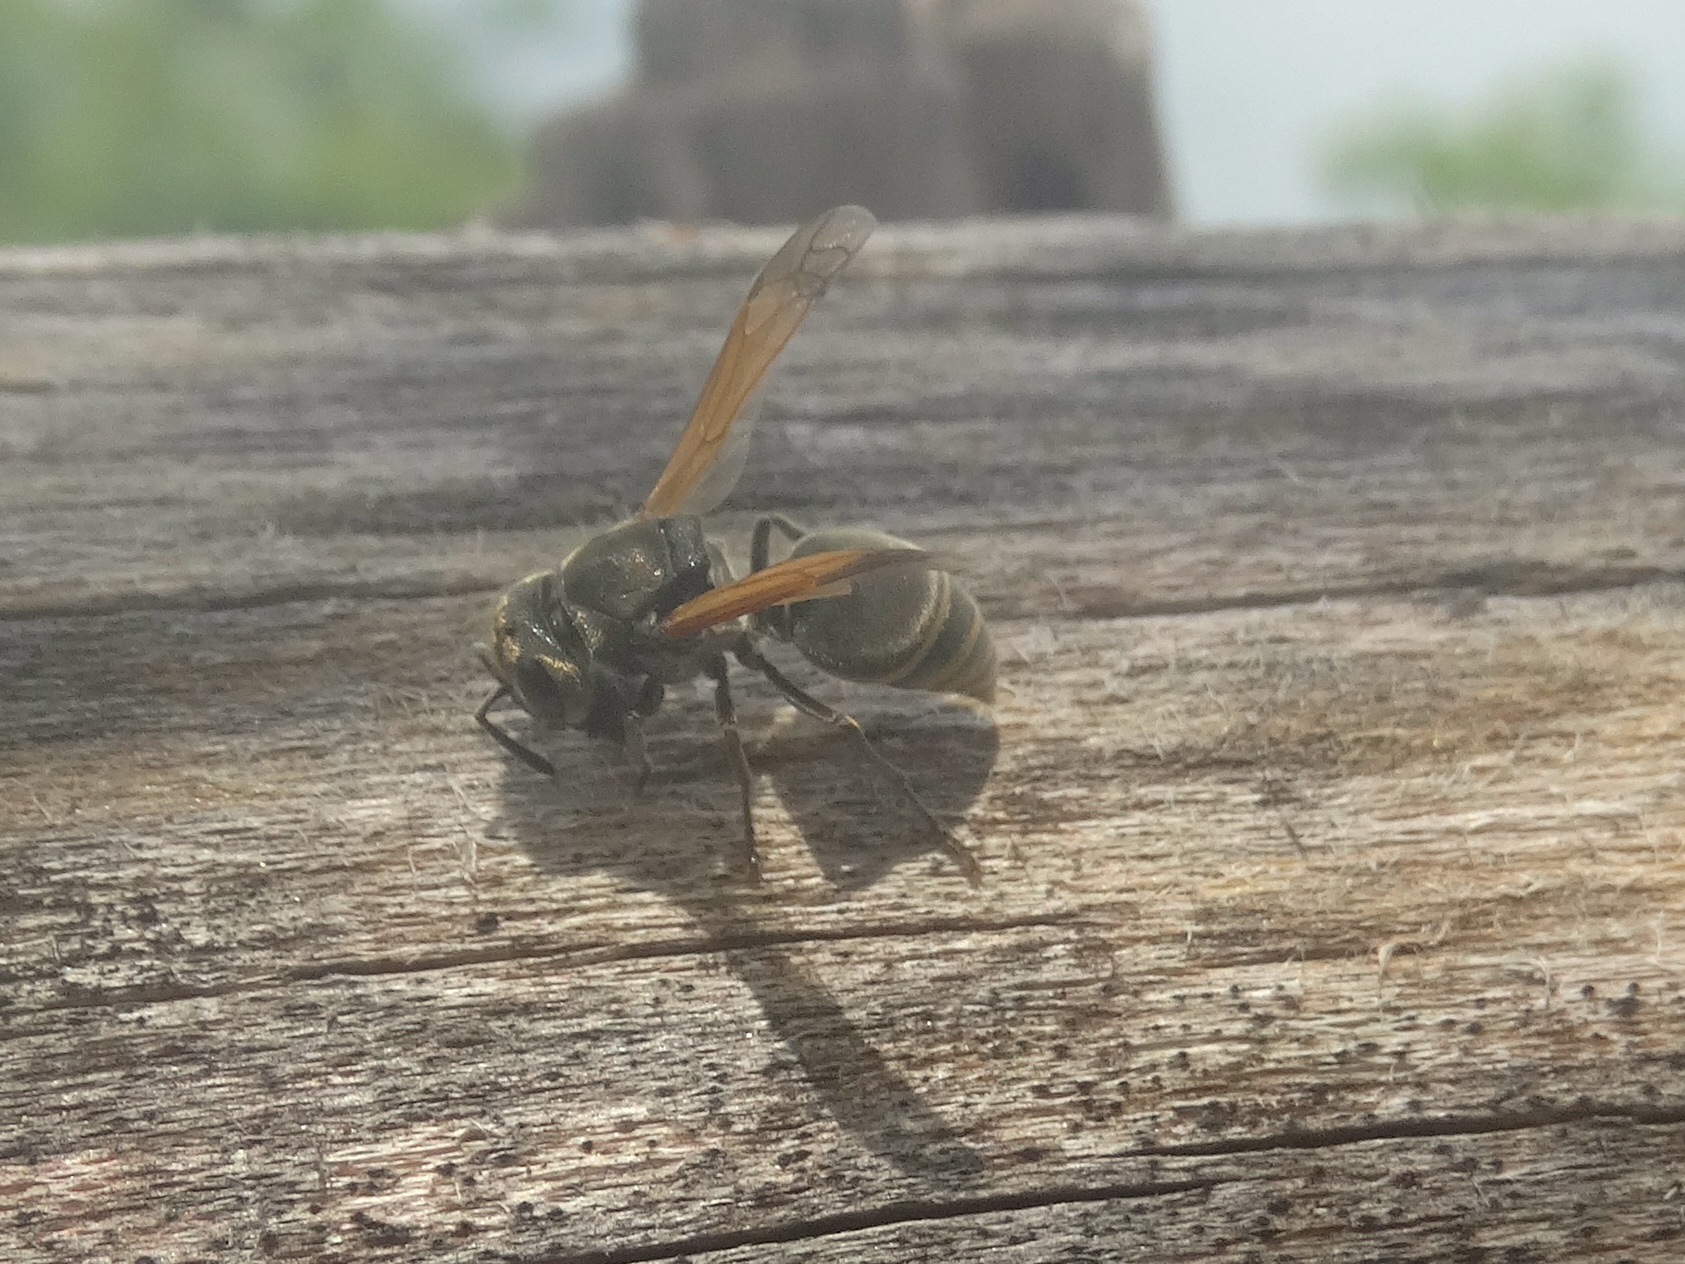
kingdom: Animalia
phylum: Arthropoda
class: Insecta
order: Hymenoptera
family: Vespidae
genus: Brachygastra
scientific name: Brachygastra mellifica
